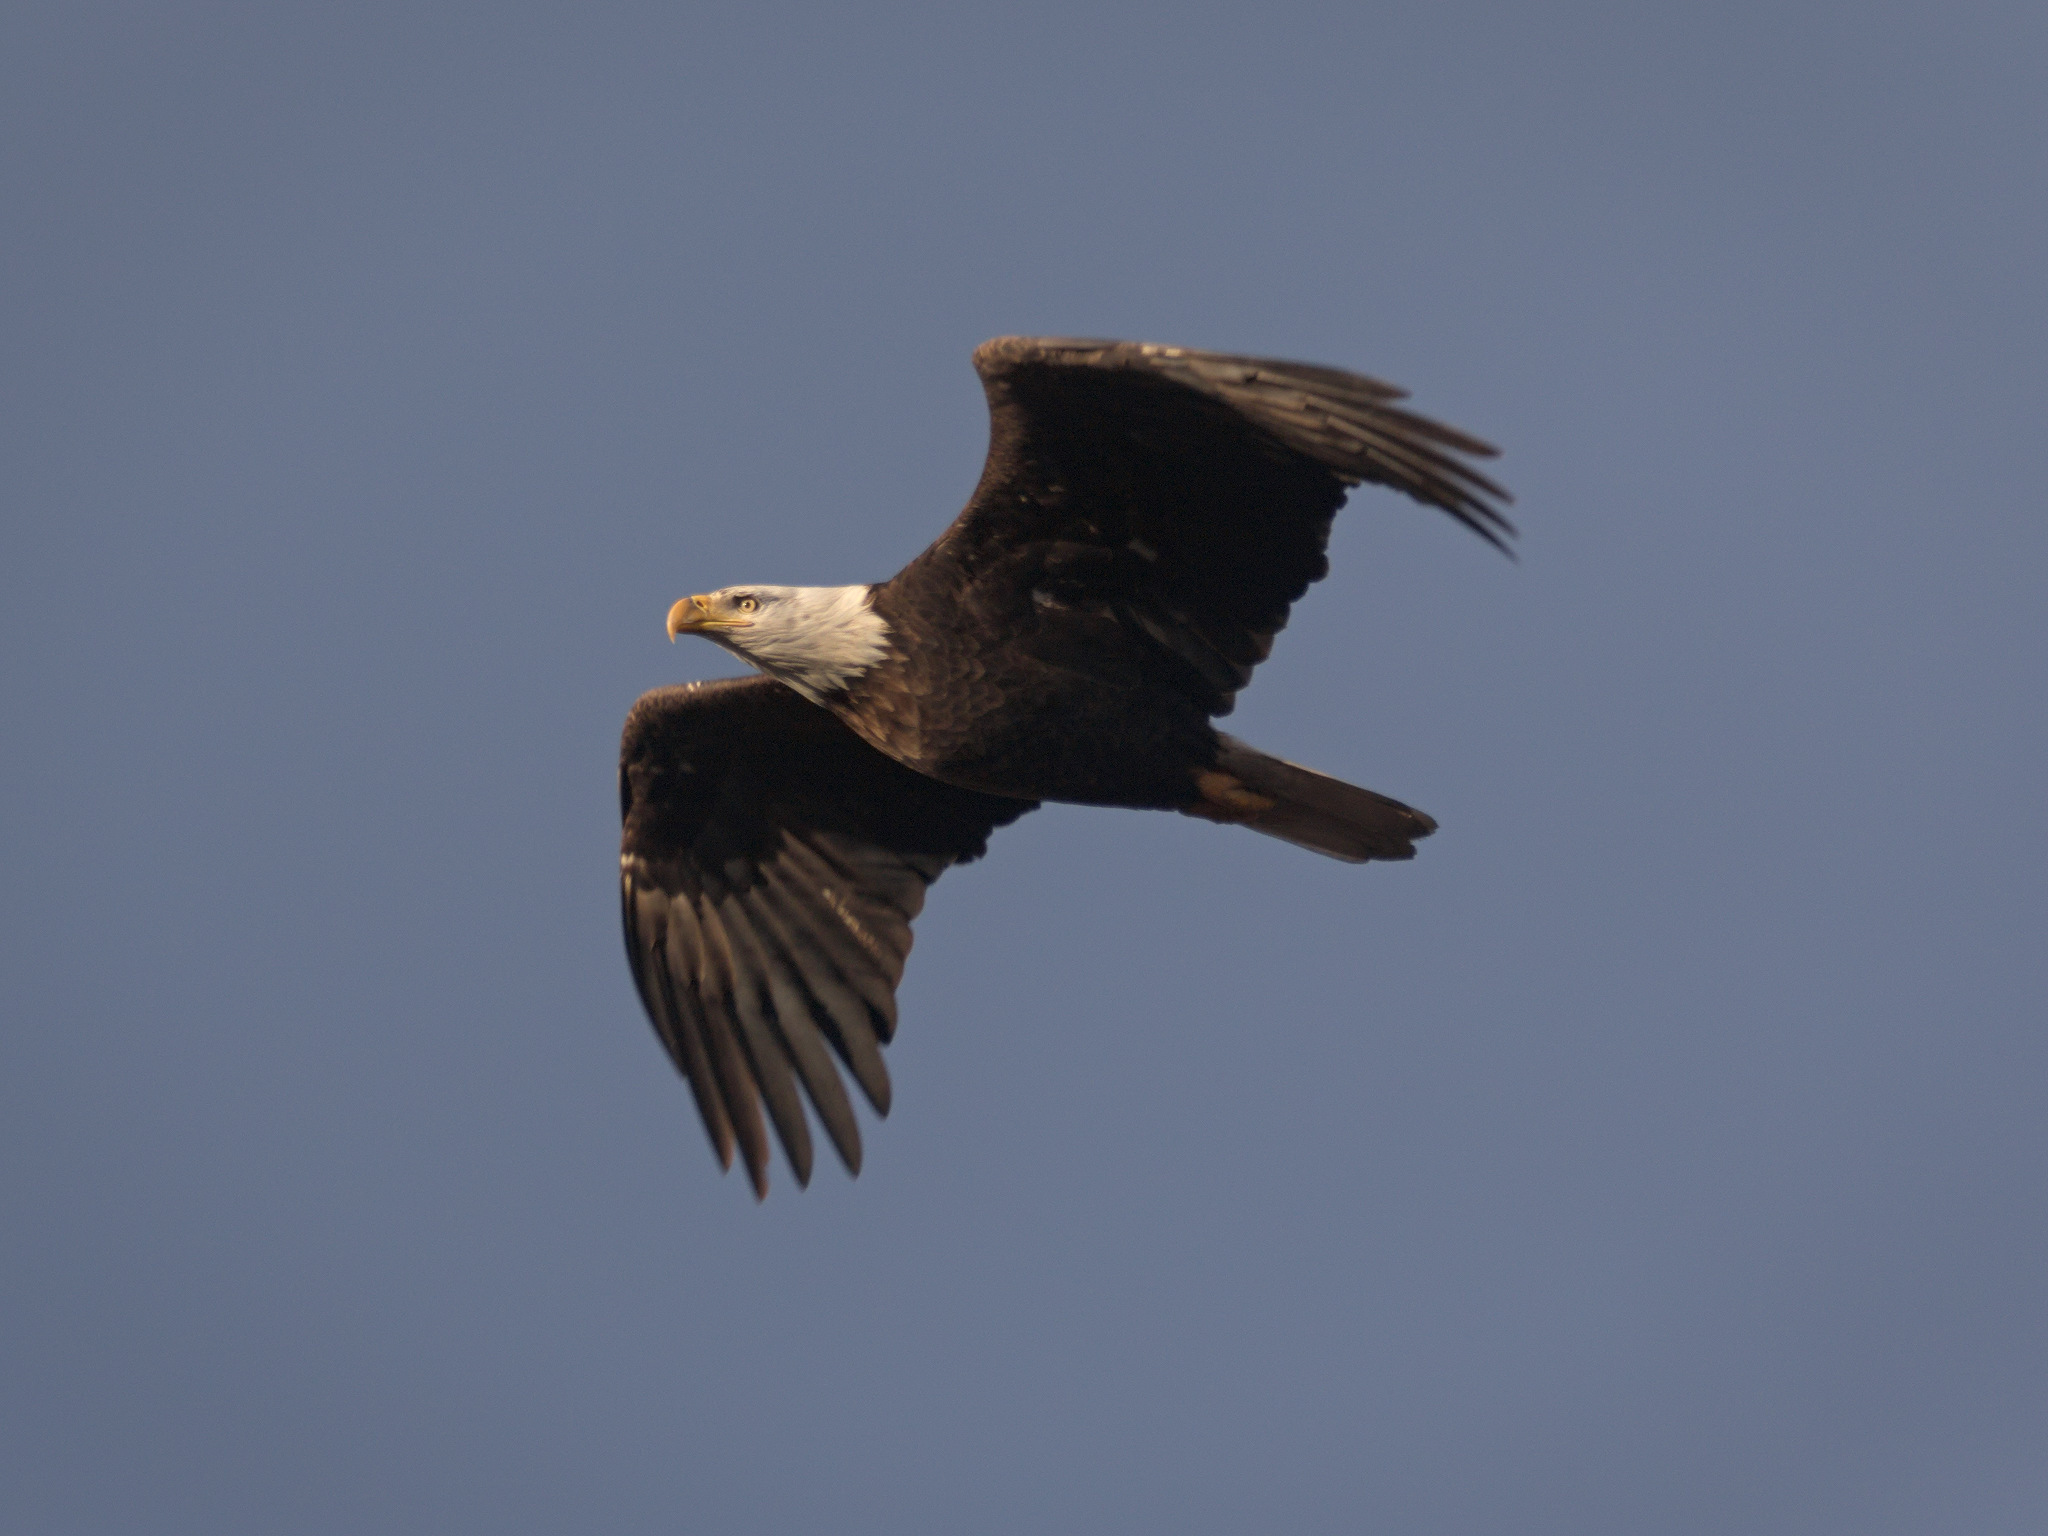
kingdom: Animalia
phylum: Chordata
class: Aves
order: Accipitriformes
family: Accipitridae
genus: Haliaeetus
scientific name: Haliaeetus leucocephalus
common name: Bald eagle
